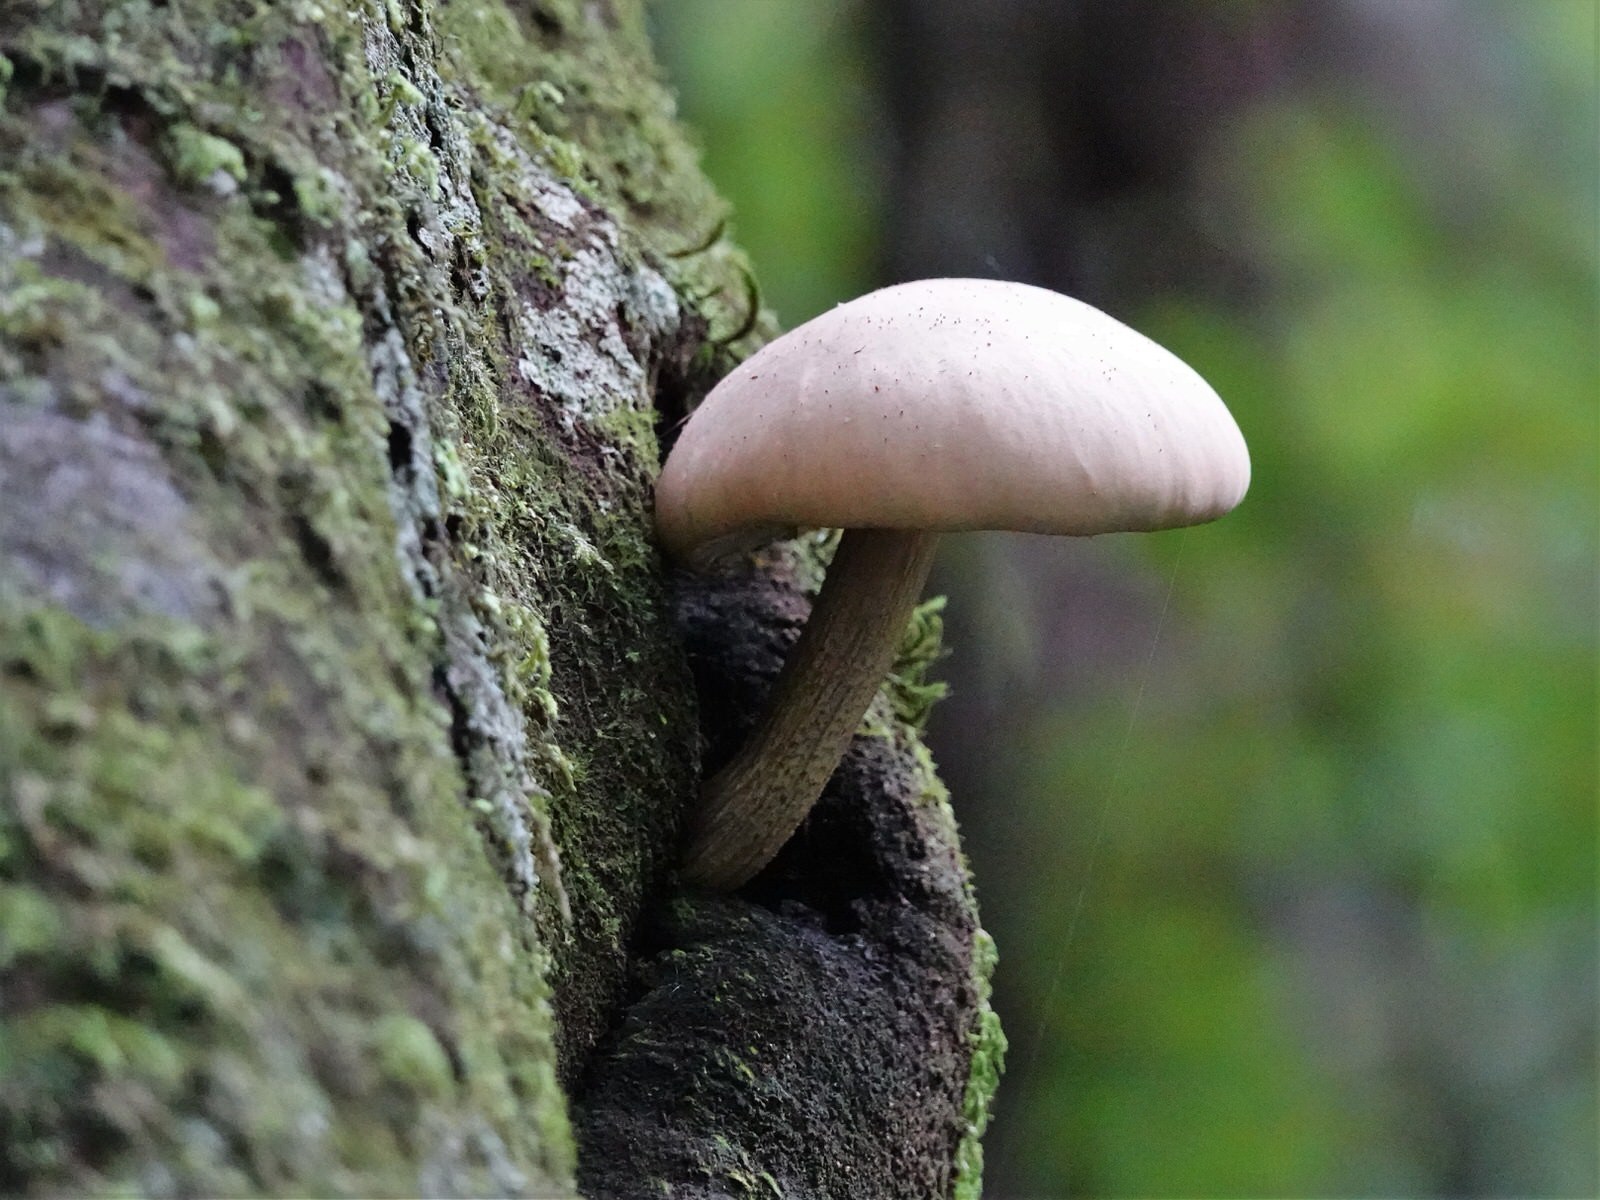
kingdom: Fungi
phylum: Basidiomycota
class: Agaricomycetes
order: Agaricales
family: Tubariaceae
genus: Cyclocybe
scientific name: Cyclocybe parasitica
